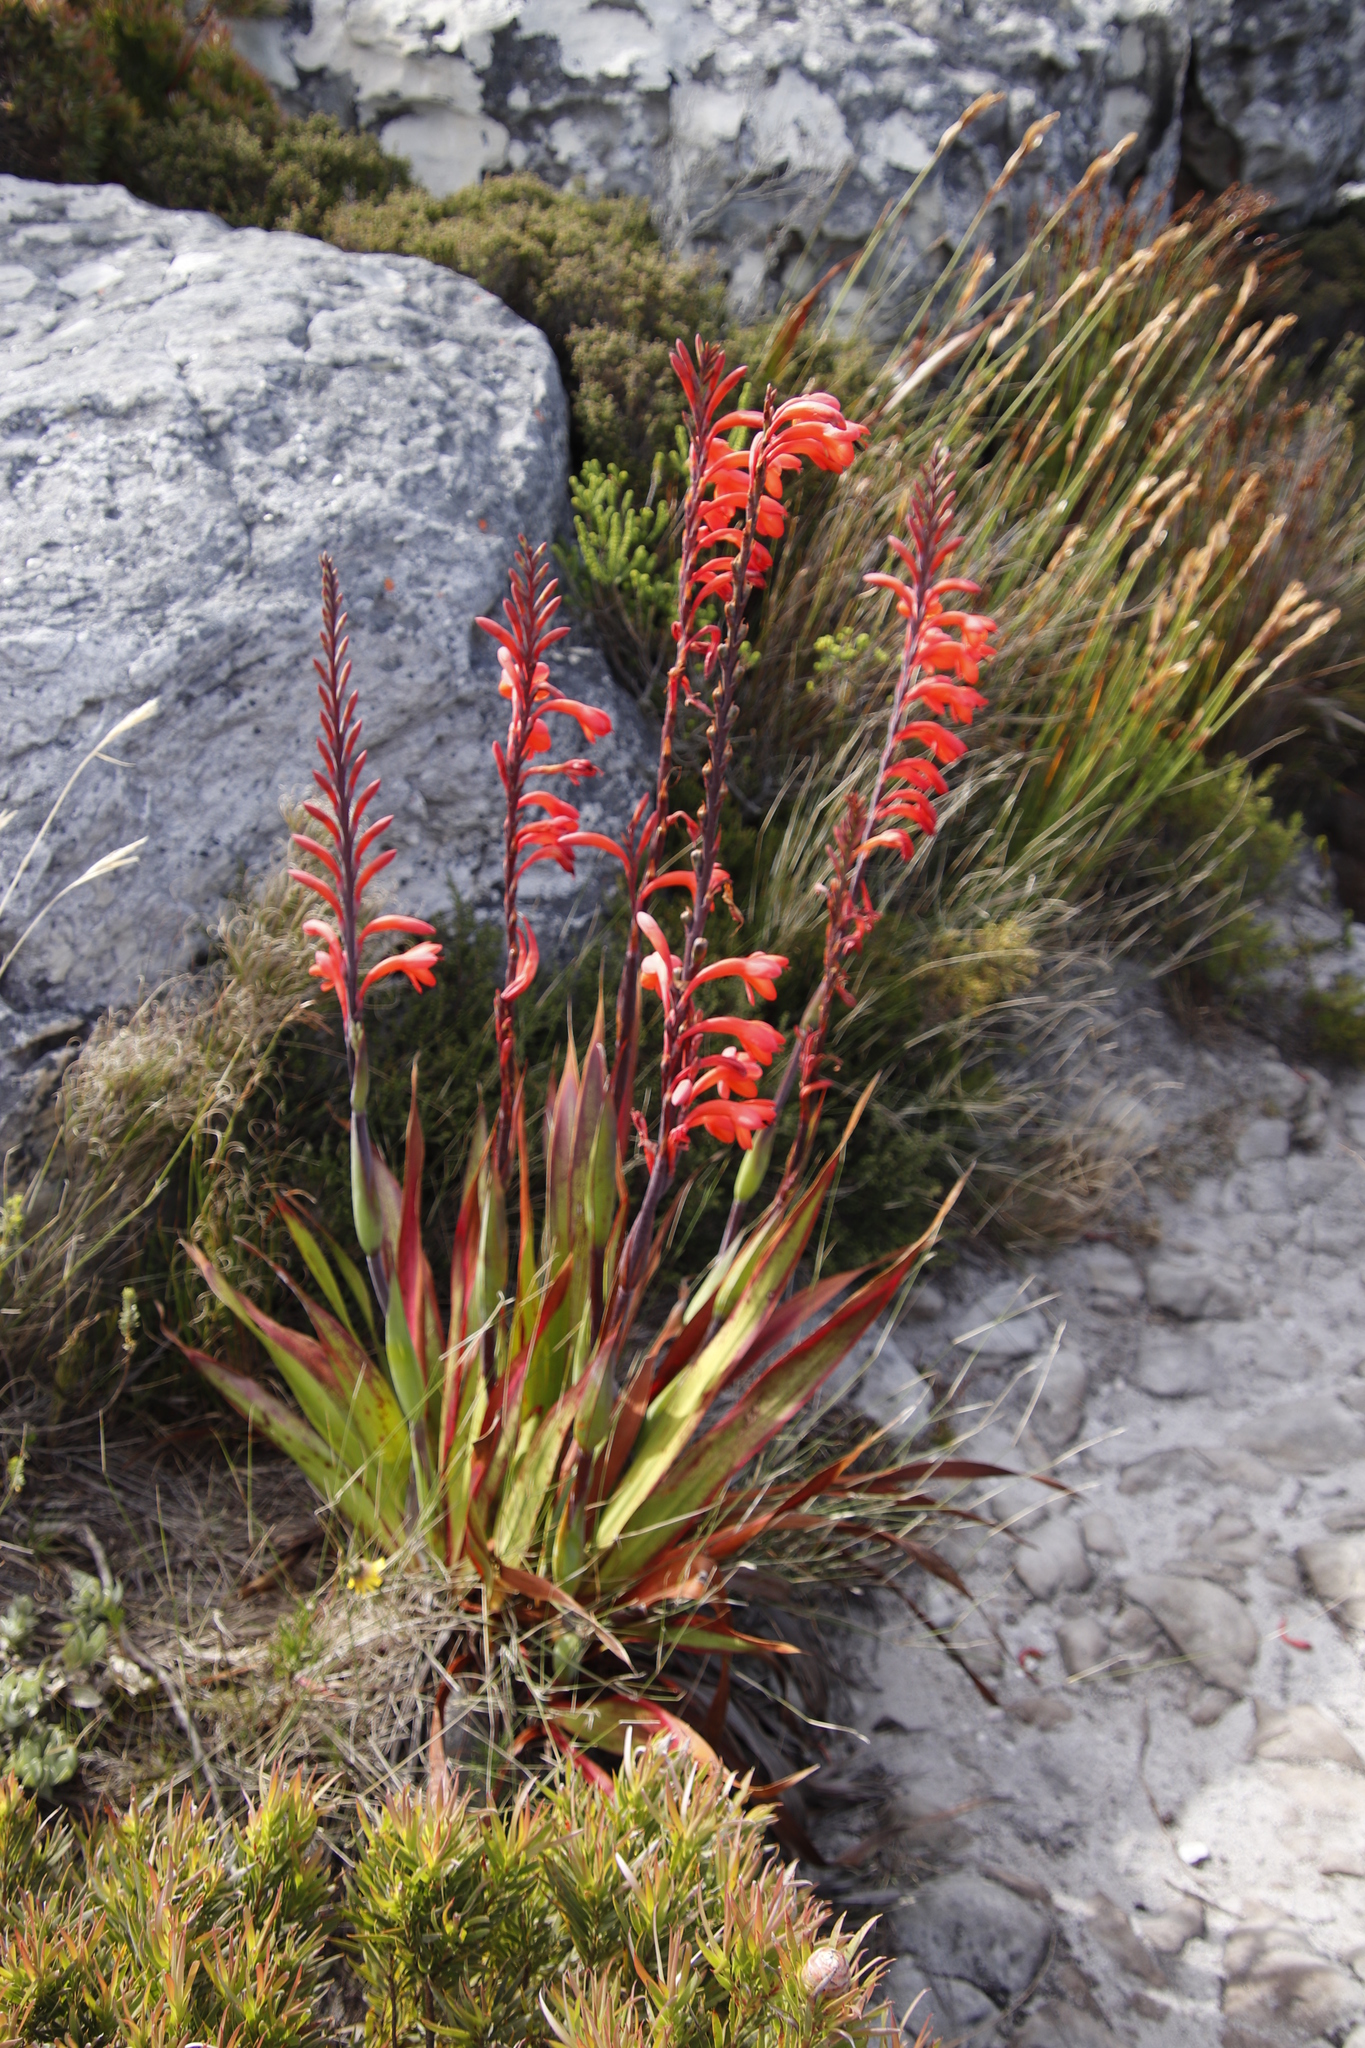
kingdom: Plantae
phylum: Tracheophyta
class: Liliopsida
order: Asparagales
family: Iridaceae
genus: Watsonia
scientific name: Watsonia tabularis
